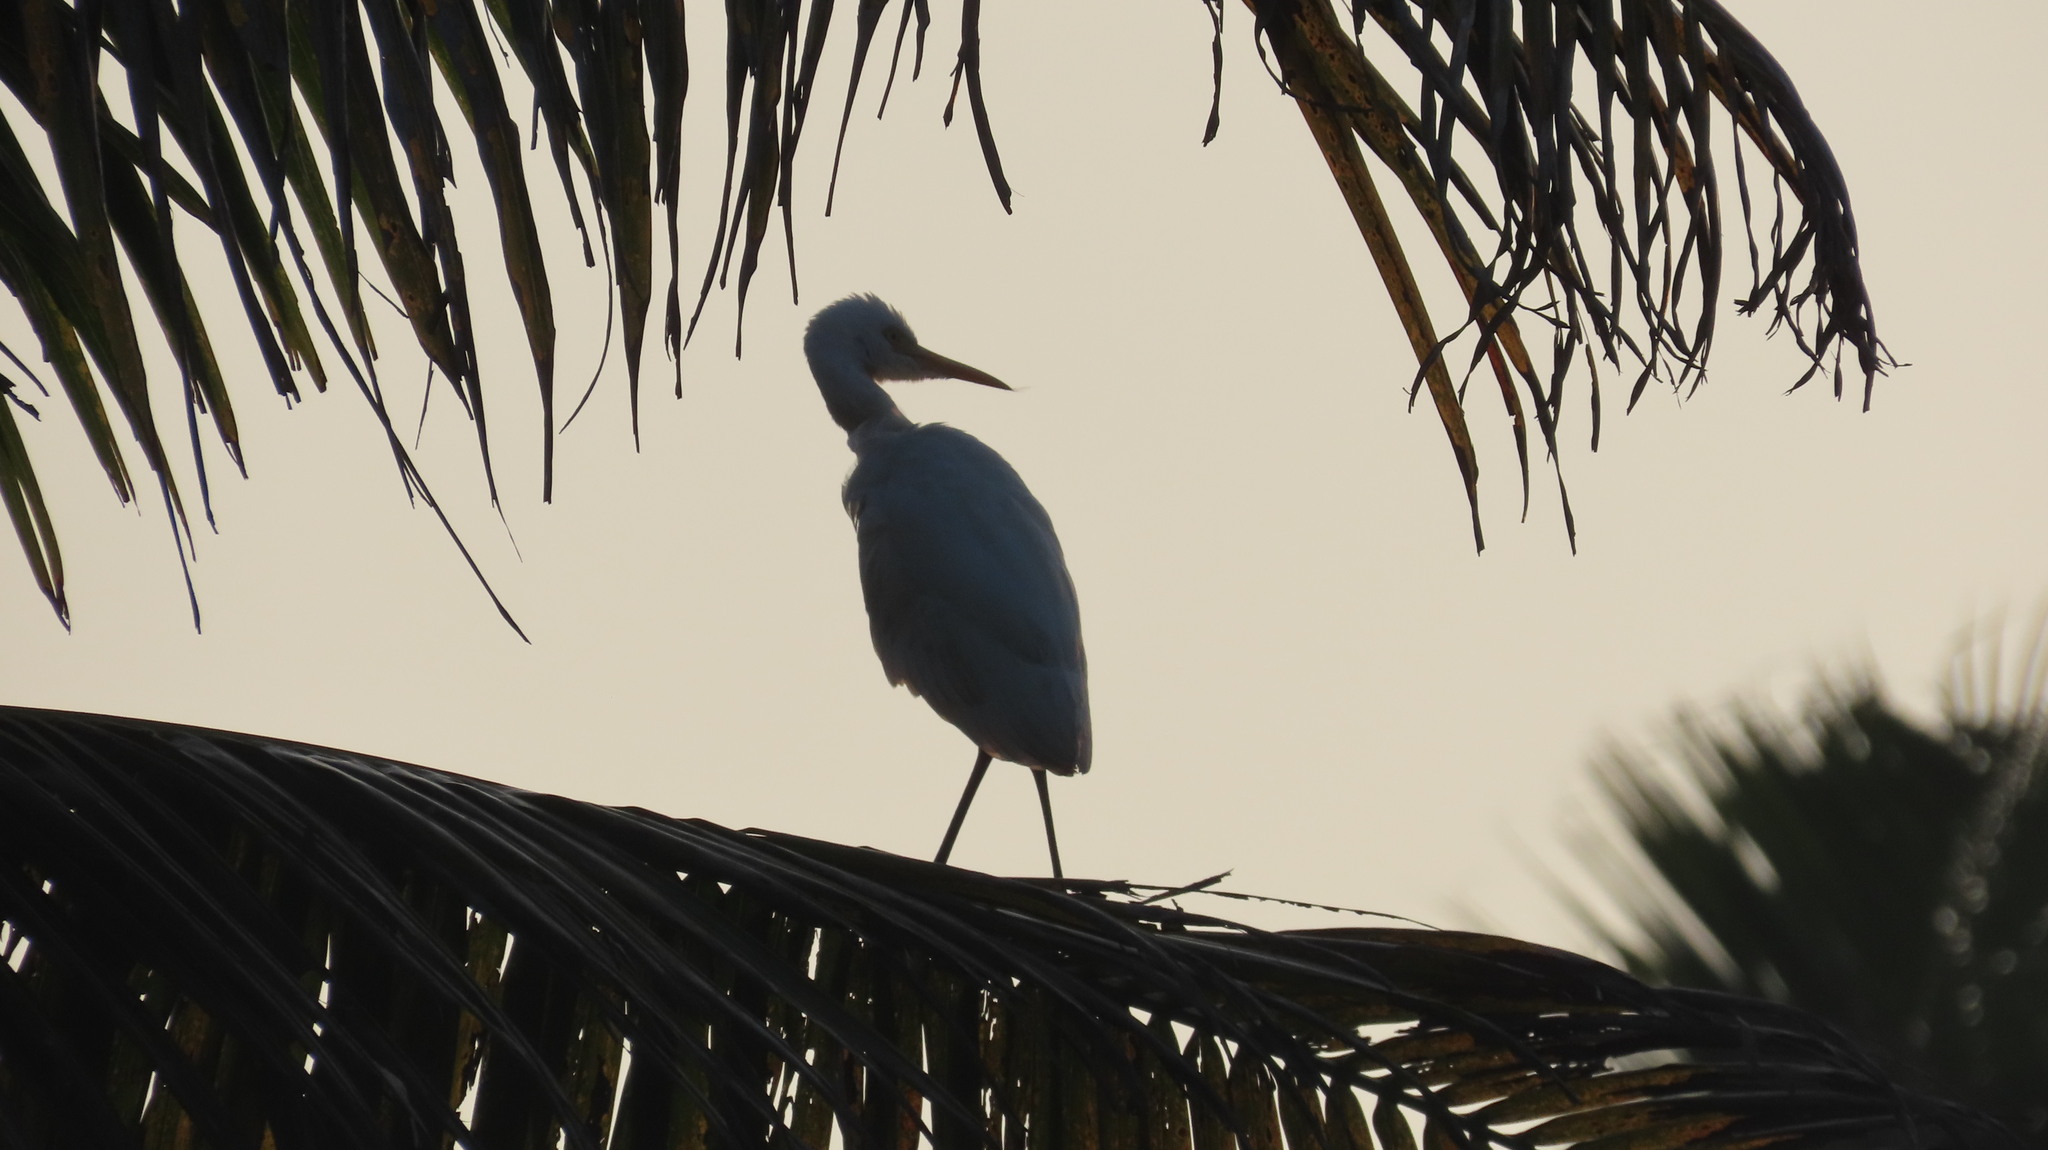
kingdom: Animalia
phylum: Chordata
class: Aves
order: Pelecaniformes
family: Ardeidae
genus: Bubulcus
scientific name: Bubulcus coromandus
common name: Eastern cattle egret
